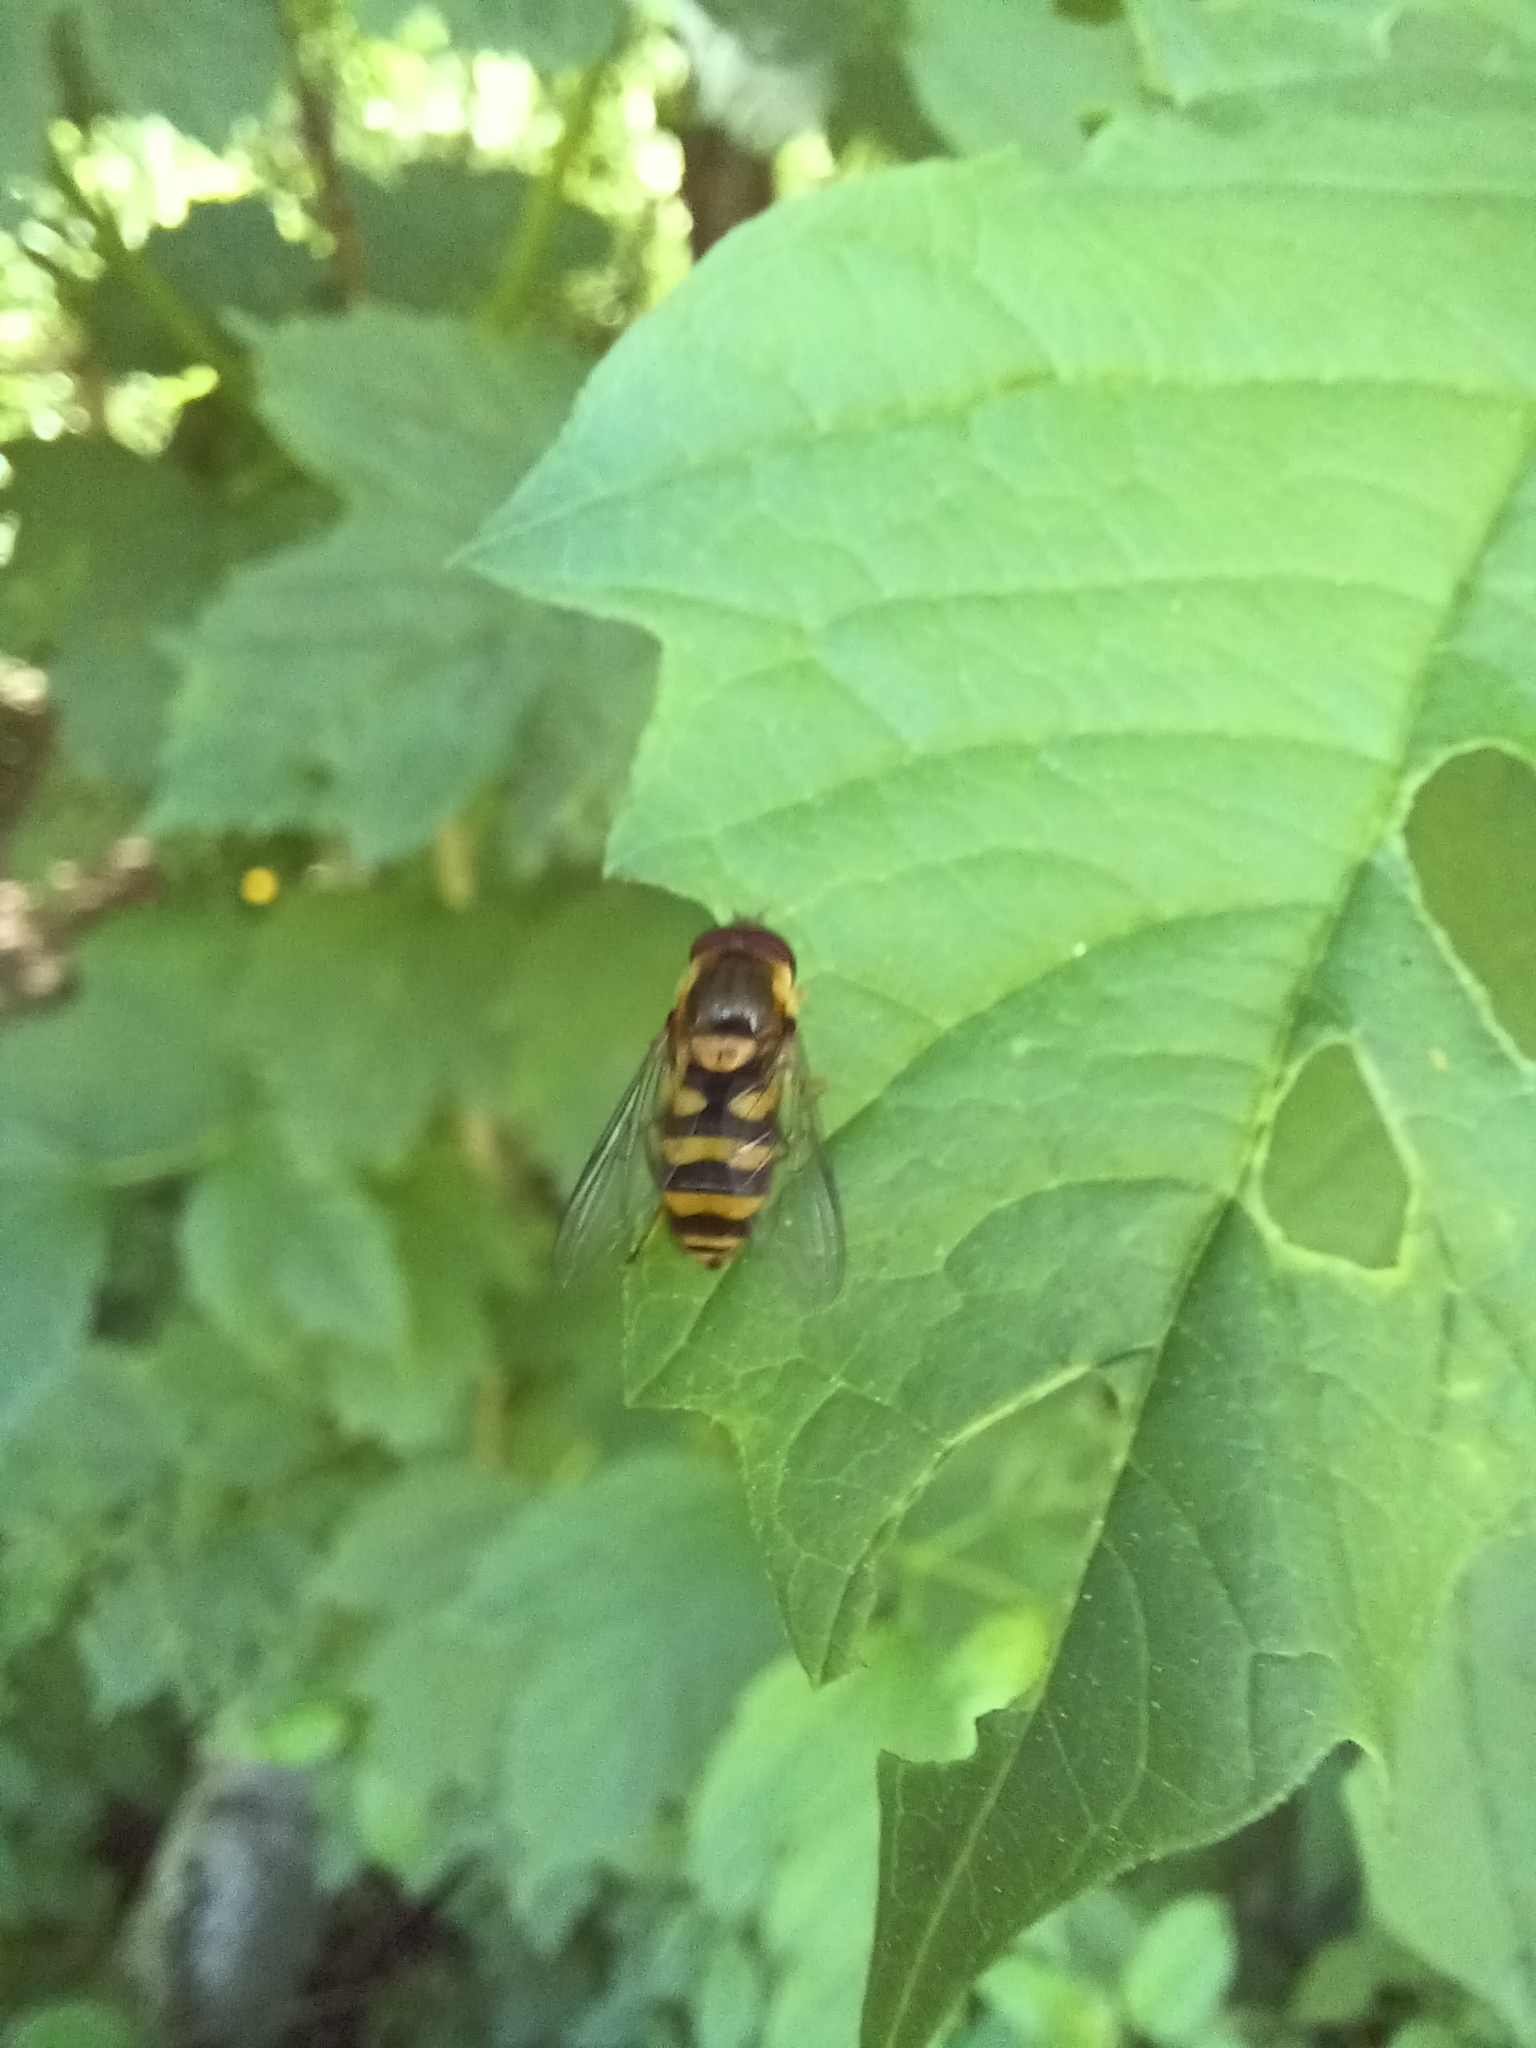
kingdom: Animalia
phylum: Arthropoda
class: Insecta
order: Diptera
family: Syrphidae
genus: Syrphus
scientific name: Syrphus
